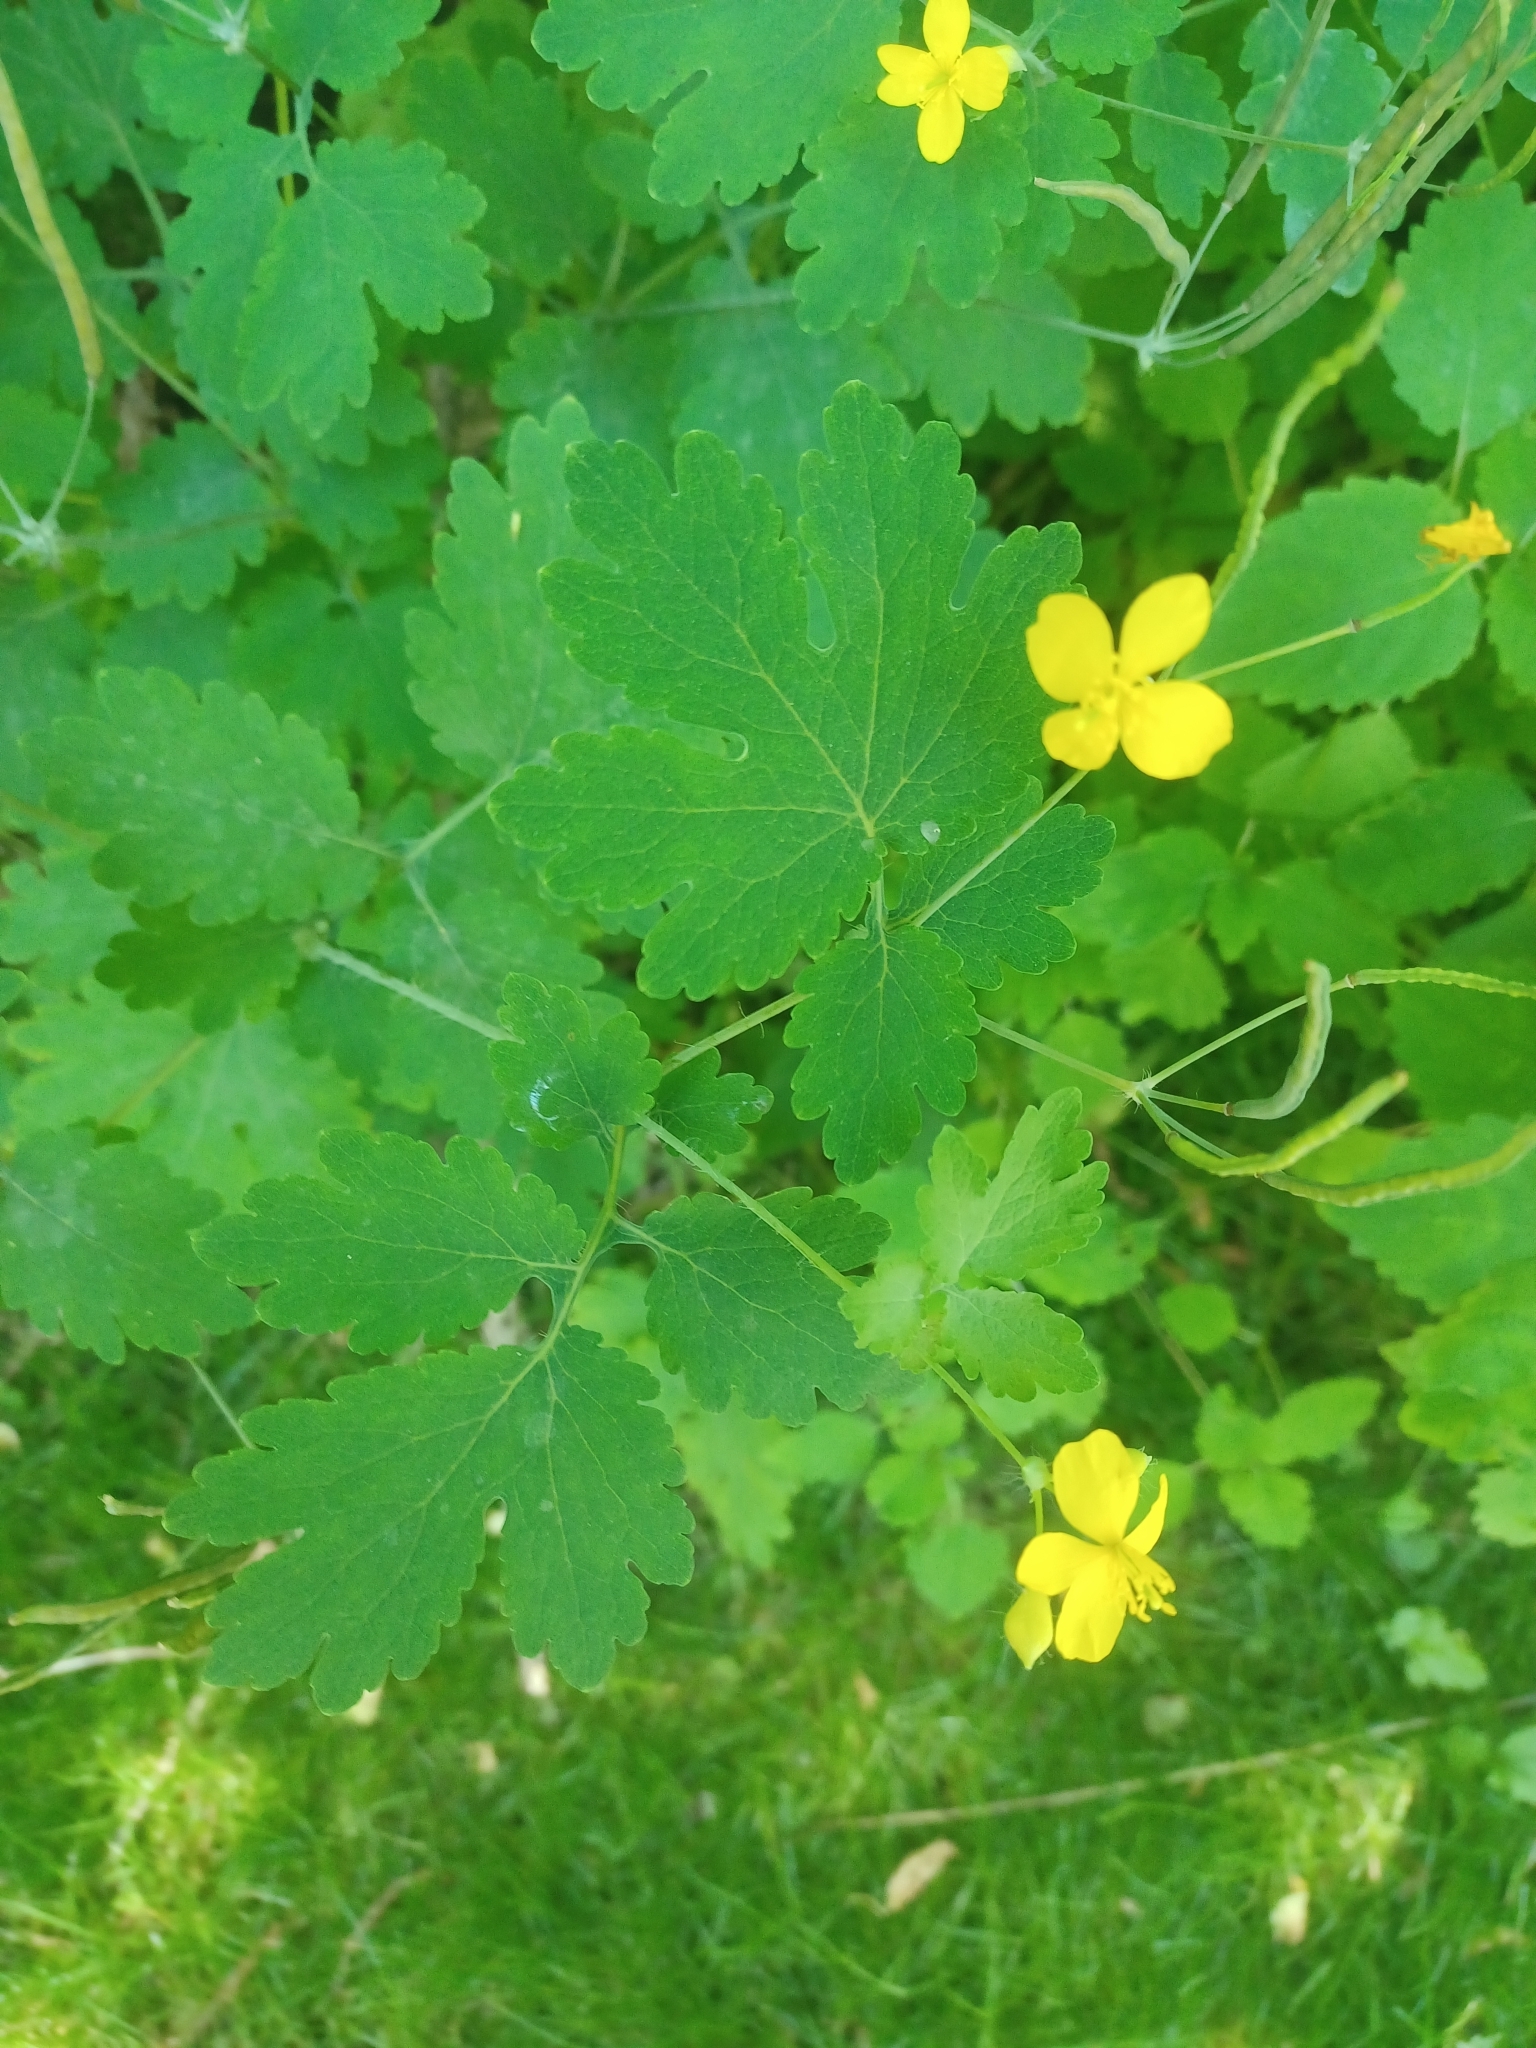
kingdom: Plantae
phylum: Tracheophyta
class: Magnoliopsida
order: Ranunculales
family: Papaveraceae
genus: Chelidonium
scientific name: Chelidonium majus
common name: Greater celandine
